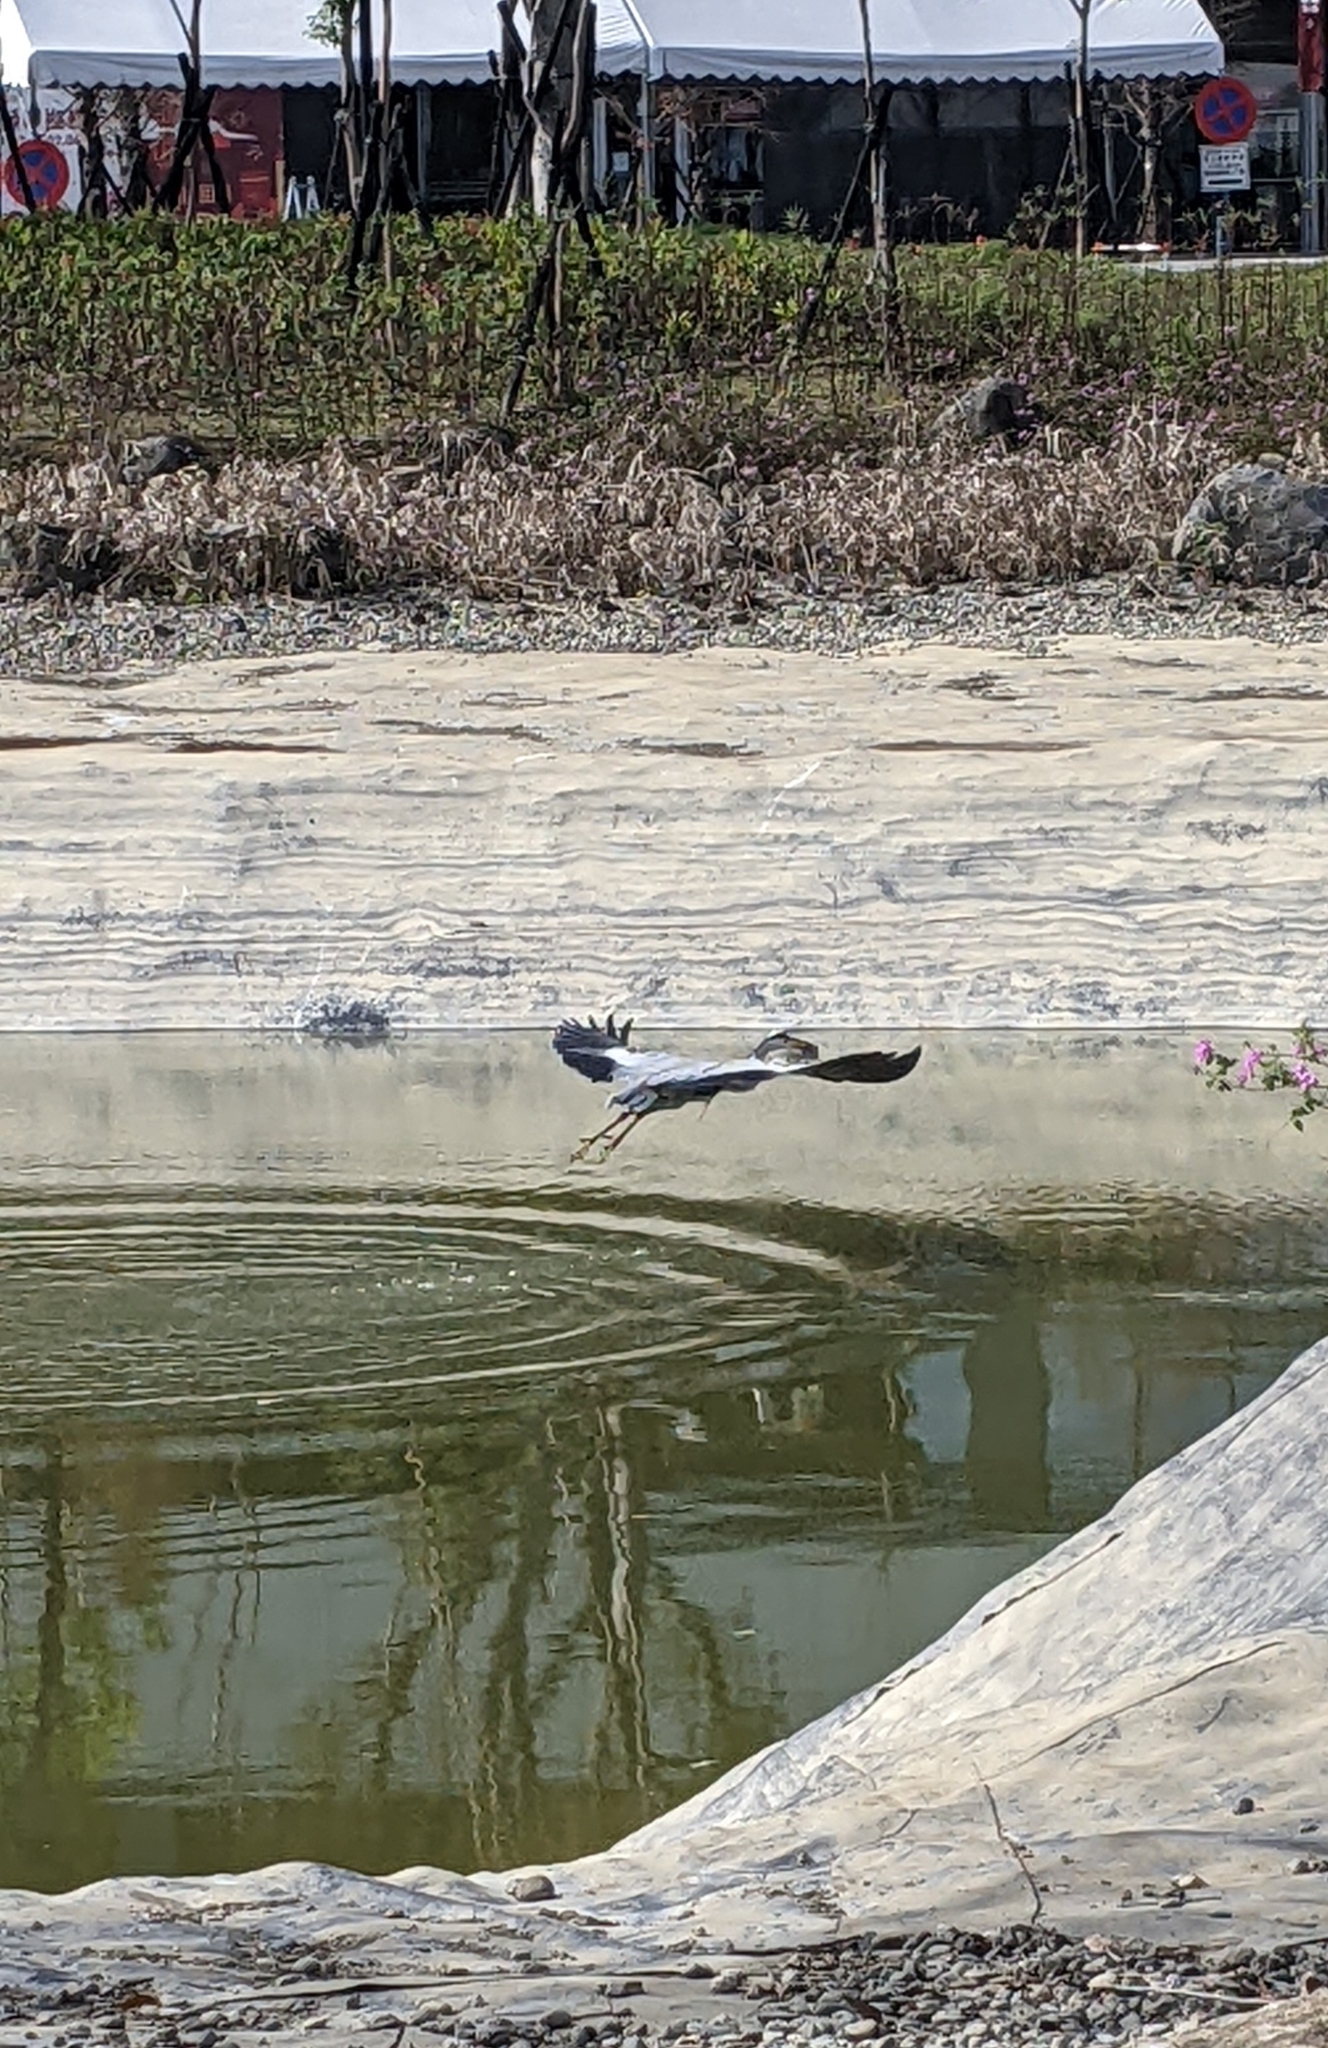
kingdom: Animalia
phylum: Chordata
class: Aves
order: Pelecaniformes
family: Ardeidae
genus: Ardea
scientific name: Ardea cinerea
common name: Grey heron
